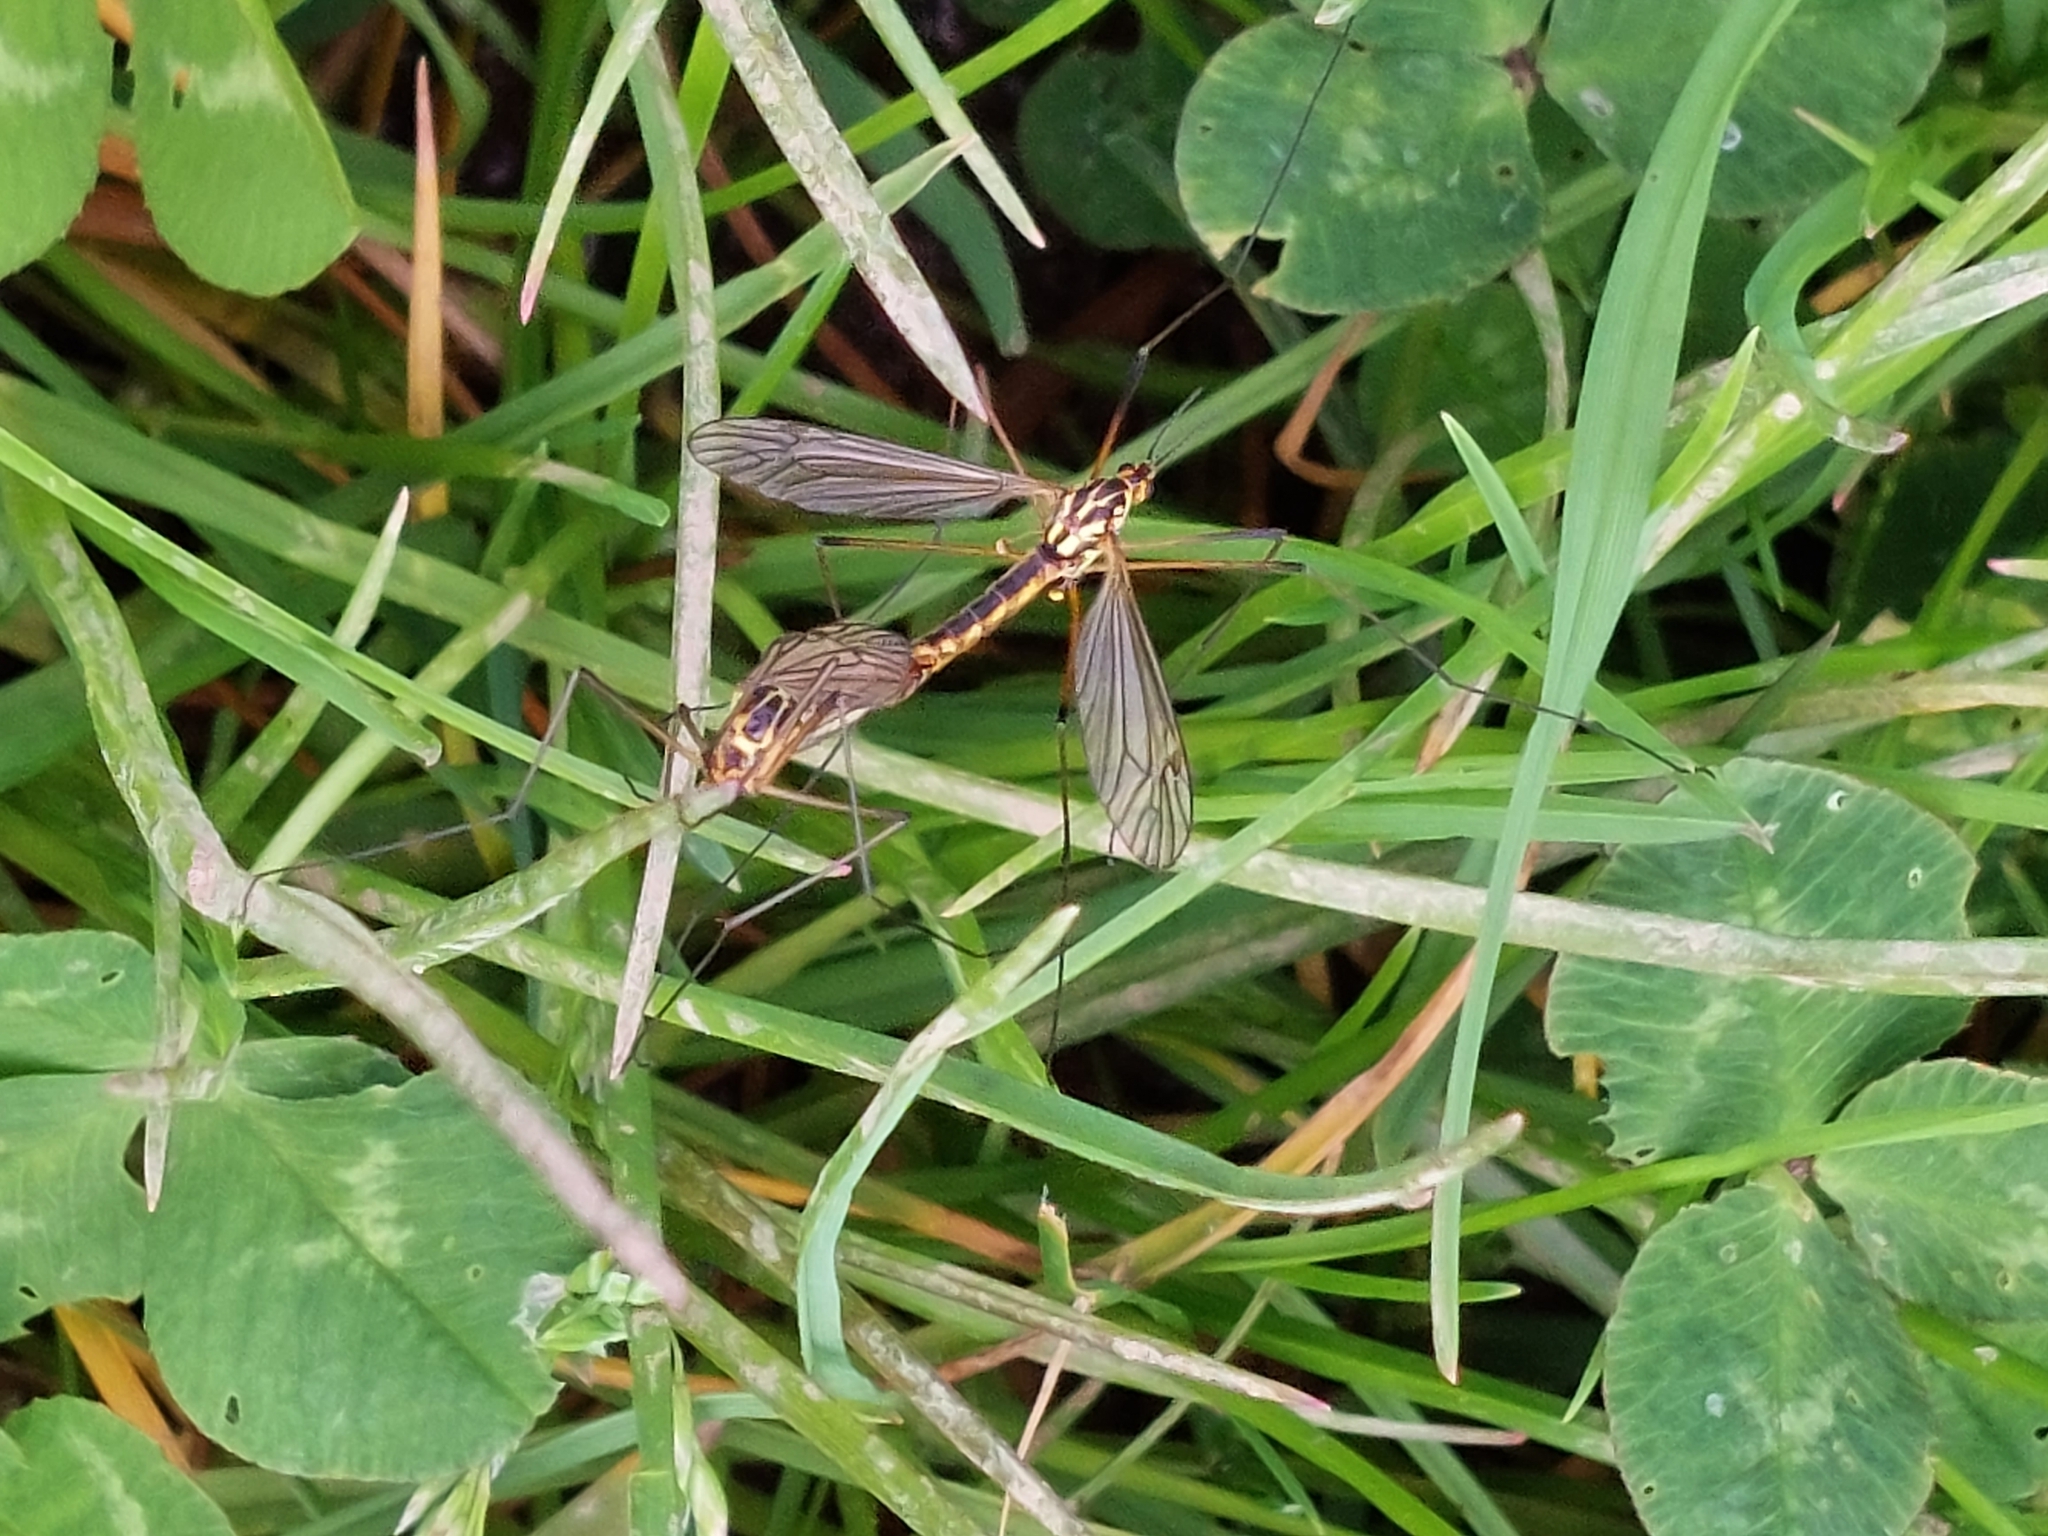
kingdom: Animalia
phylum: Arthropoda
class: Insecta
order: Diptera
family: Tipulidae
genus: Nephrotoma
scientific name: Nephrotoma appendiculata
